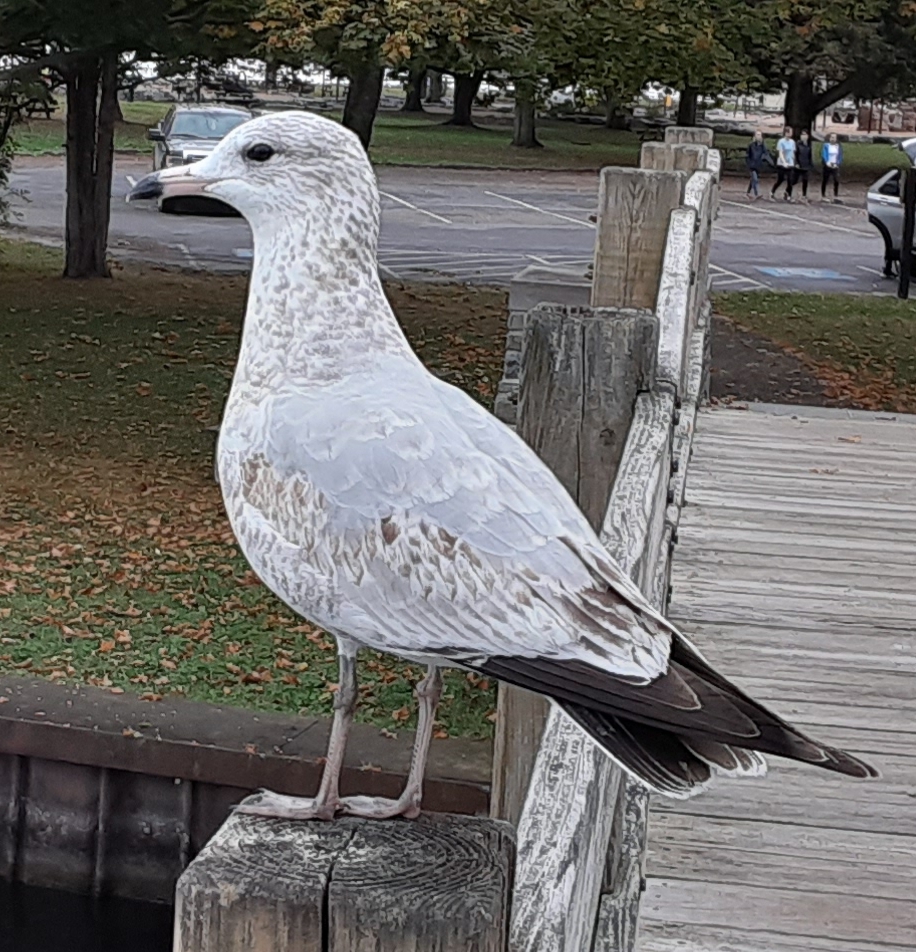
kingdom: Animalia
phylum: Chordata
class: Aves
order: Charadriiformes
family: Laridae
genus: Larus
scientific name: Larus delawarensis
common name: Ring-billed gull
